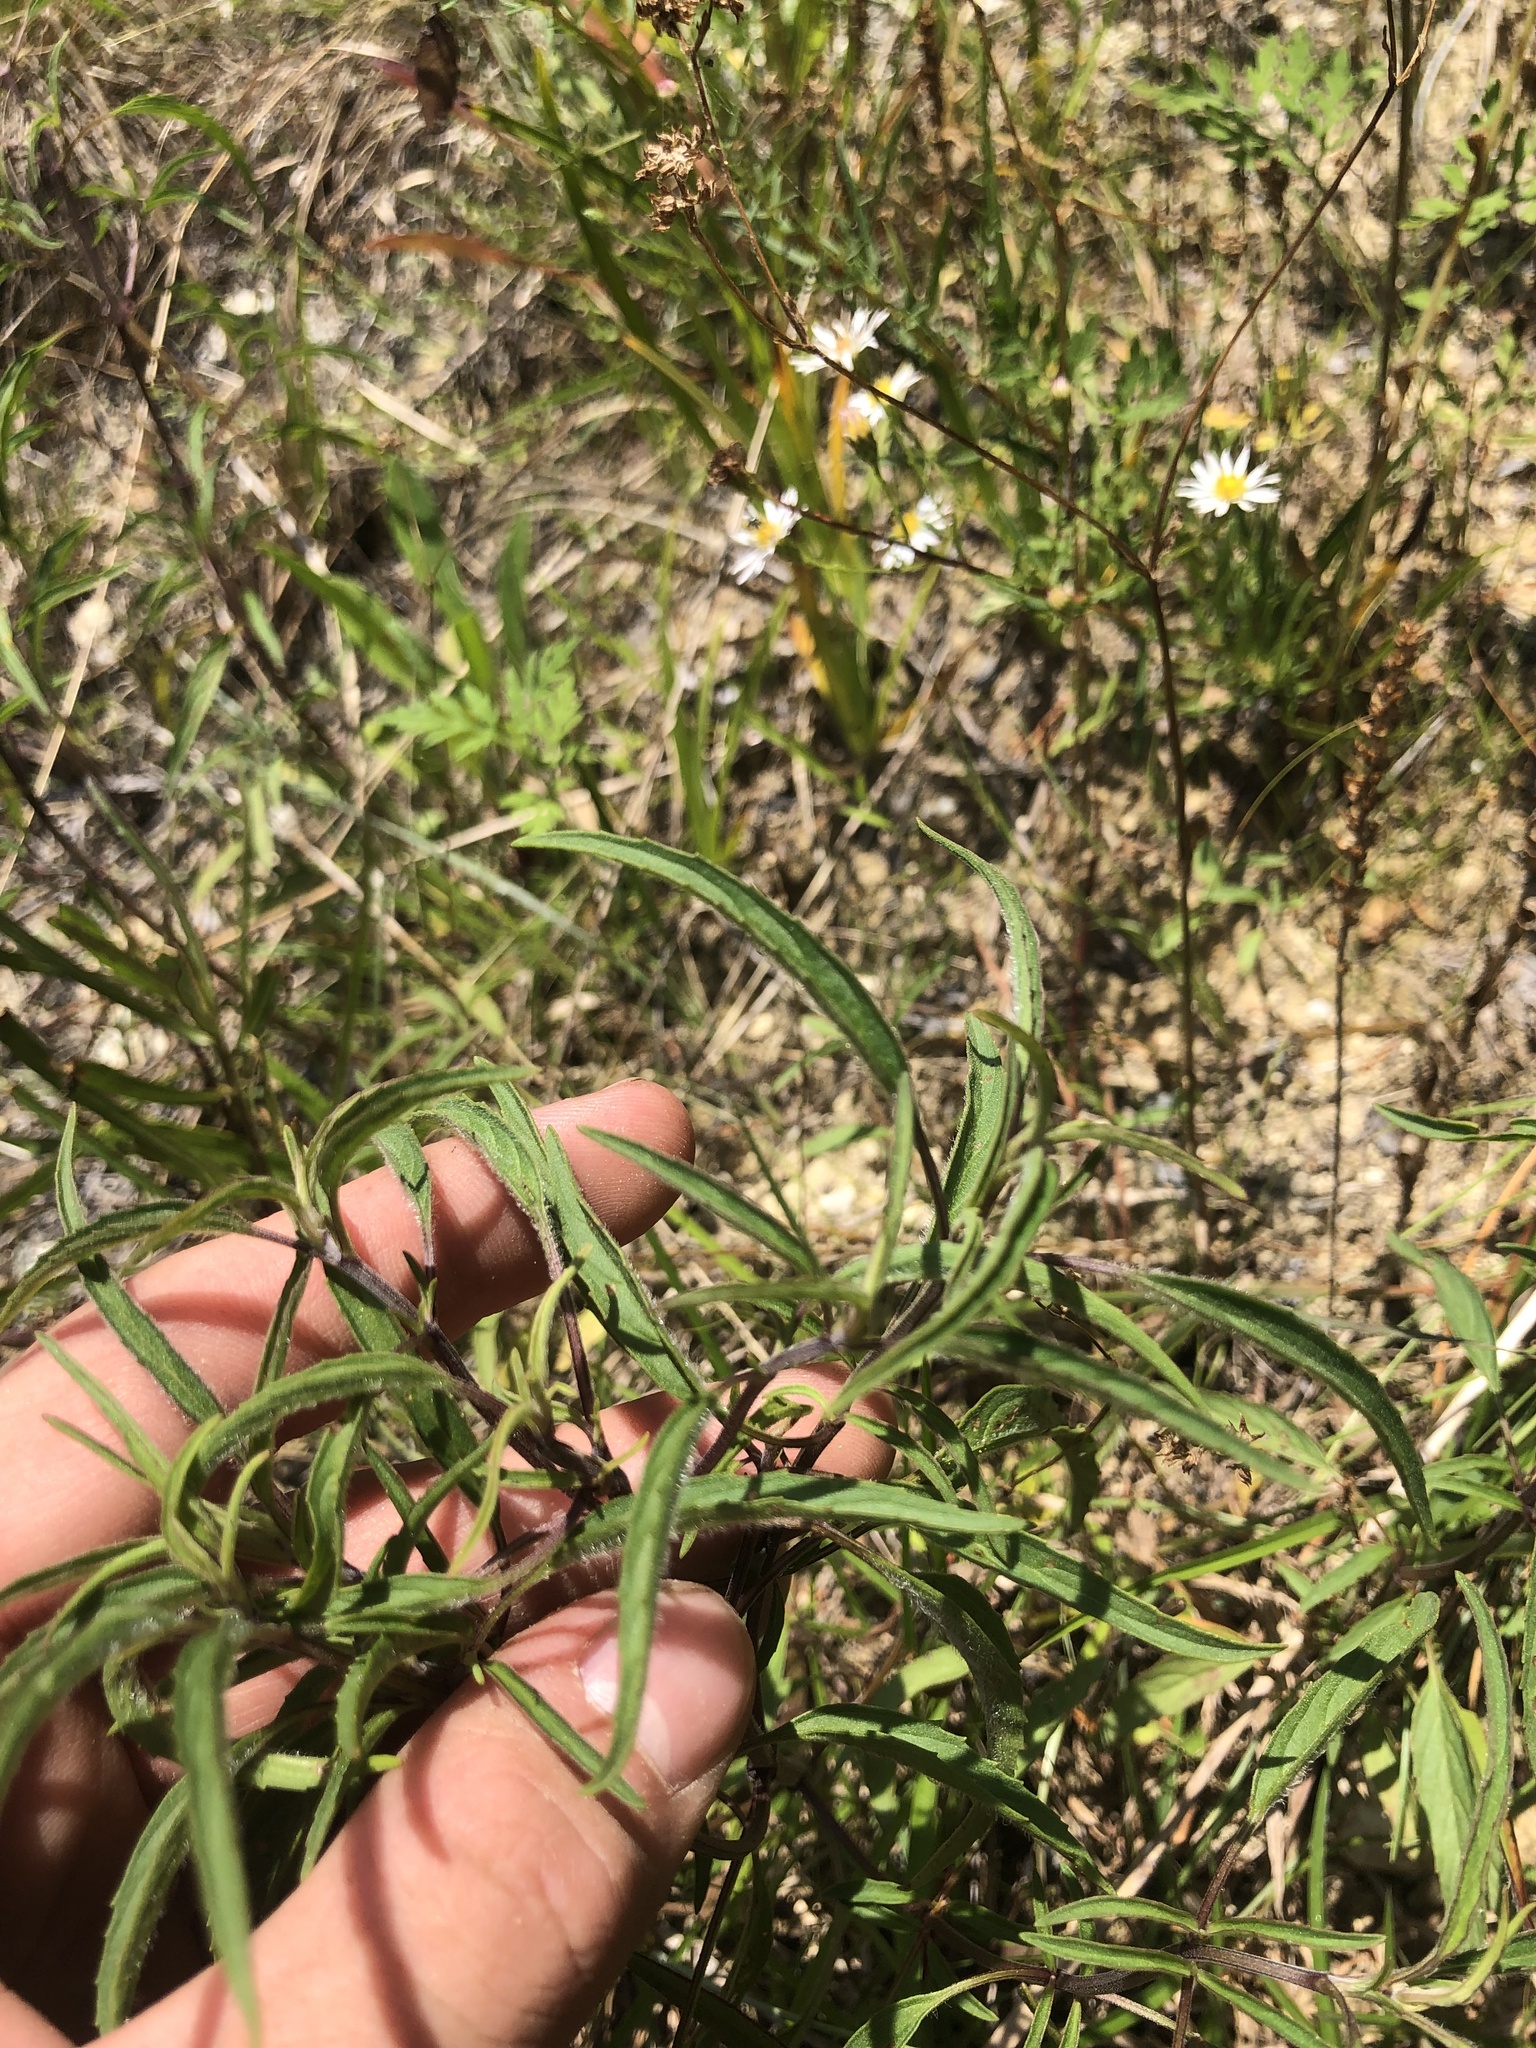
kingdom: Plantae
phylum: Tracheophyta
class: Magnoliopsida
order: Lamiales
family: Lamiaceae
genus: Monarda
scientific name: Monarda citriodora
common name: Lemon beebalm
